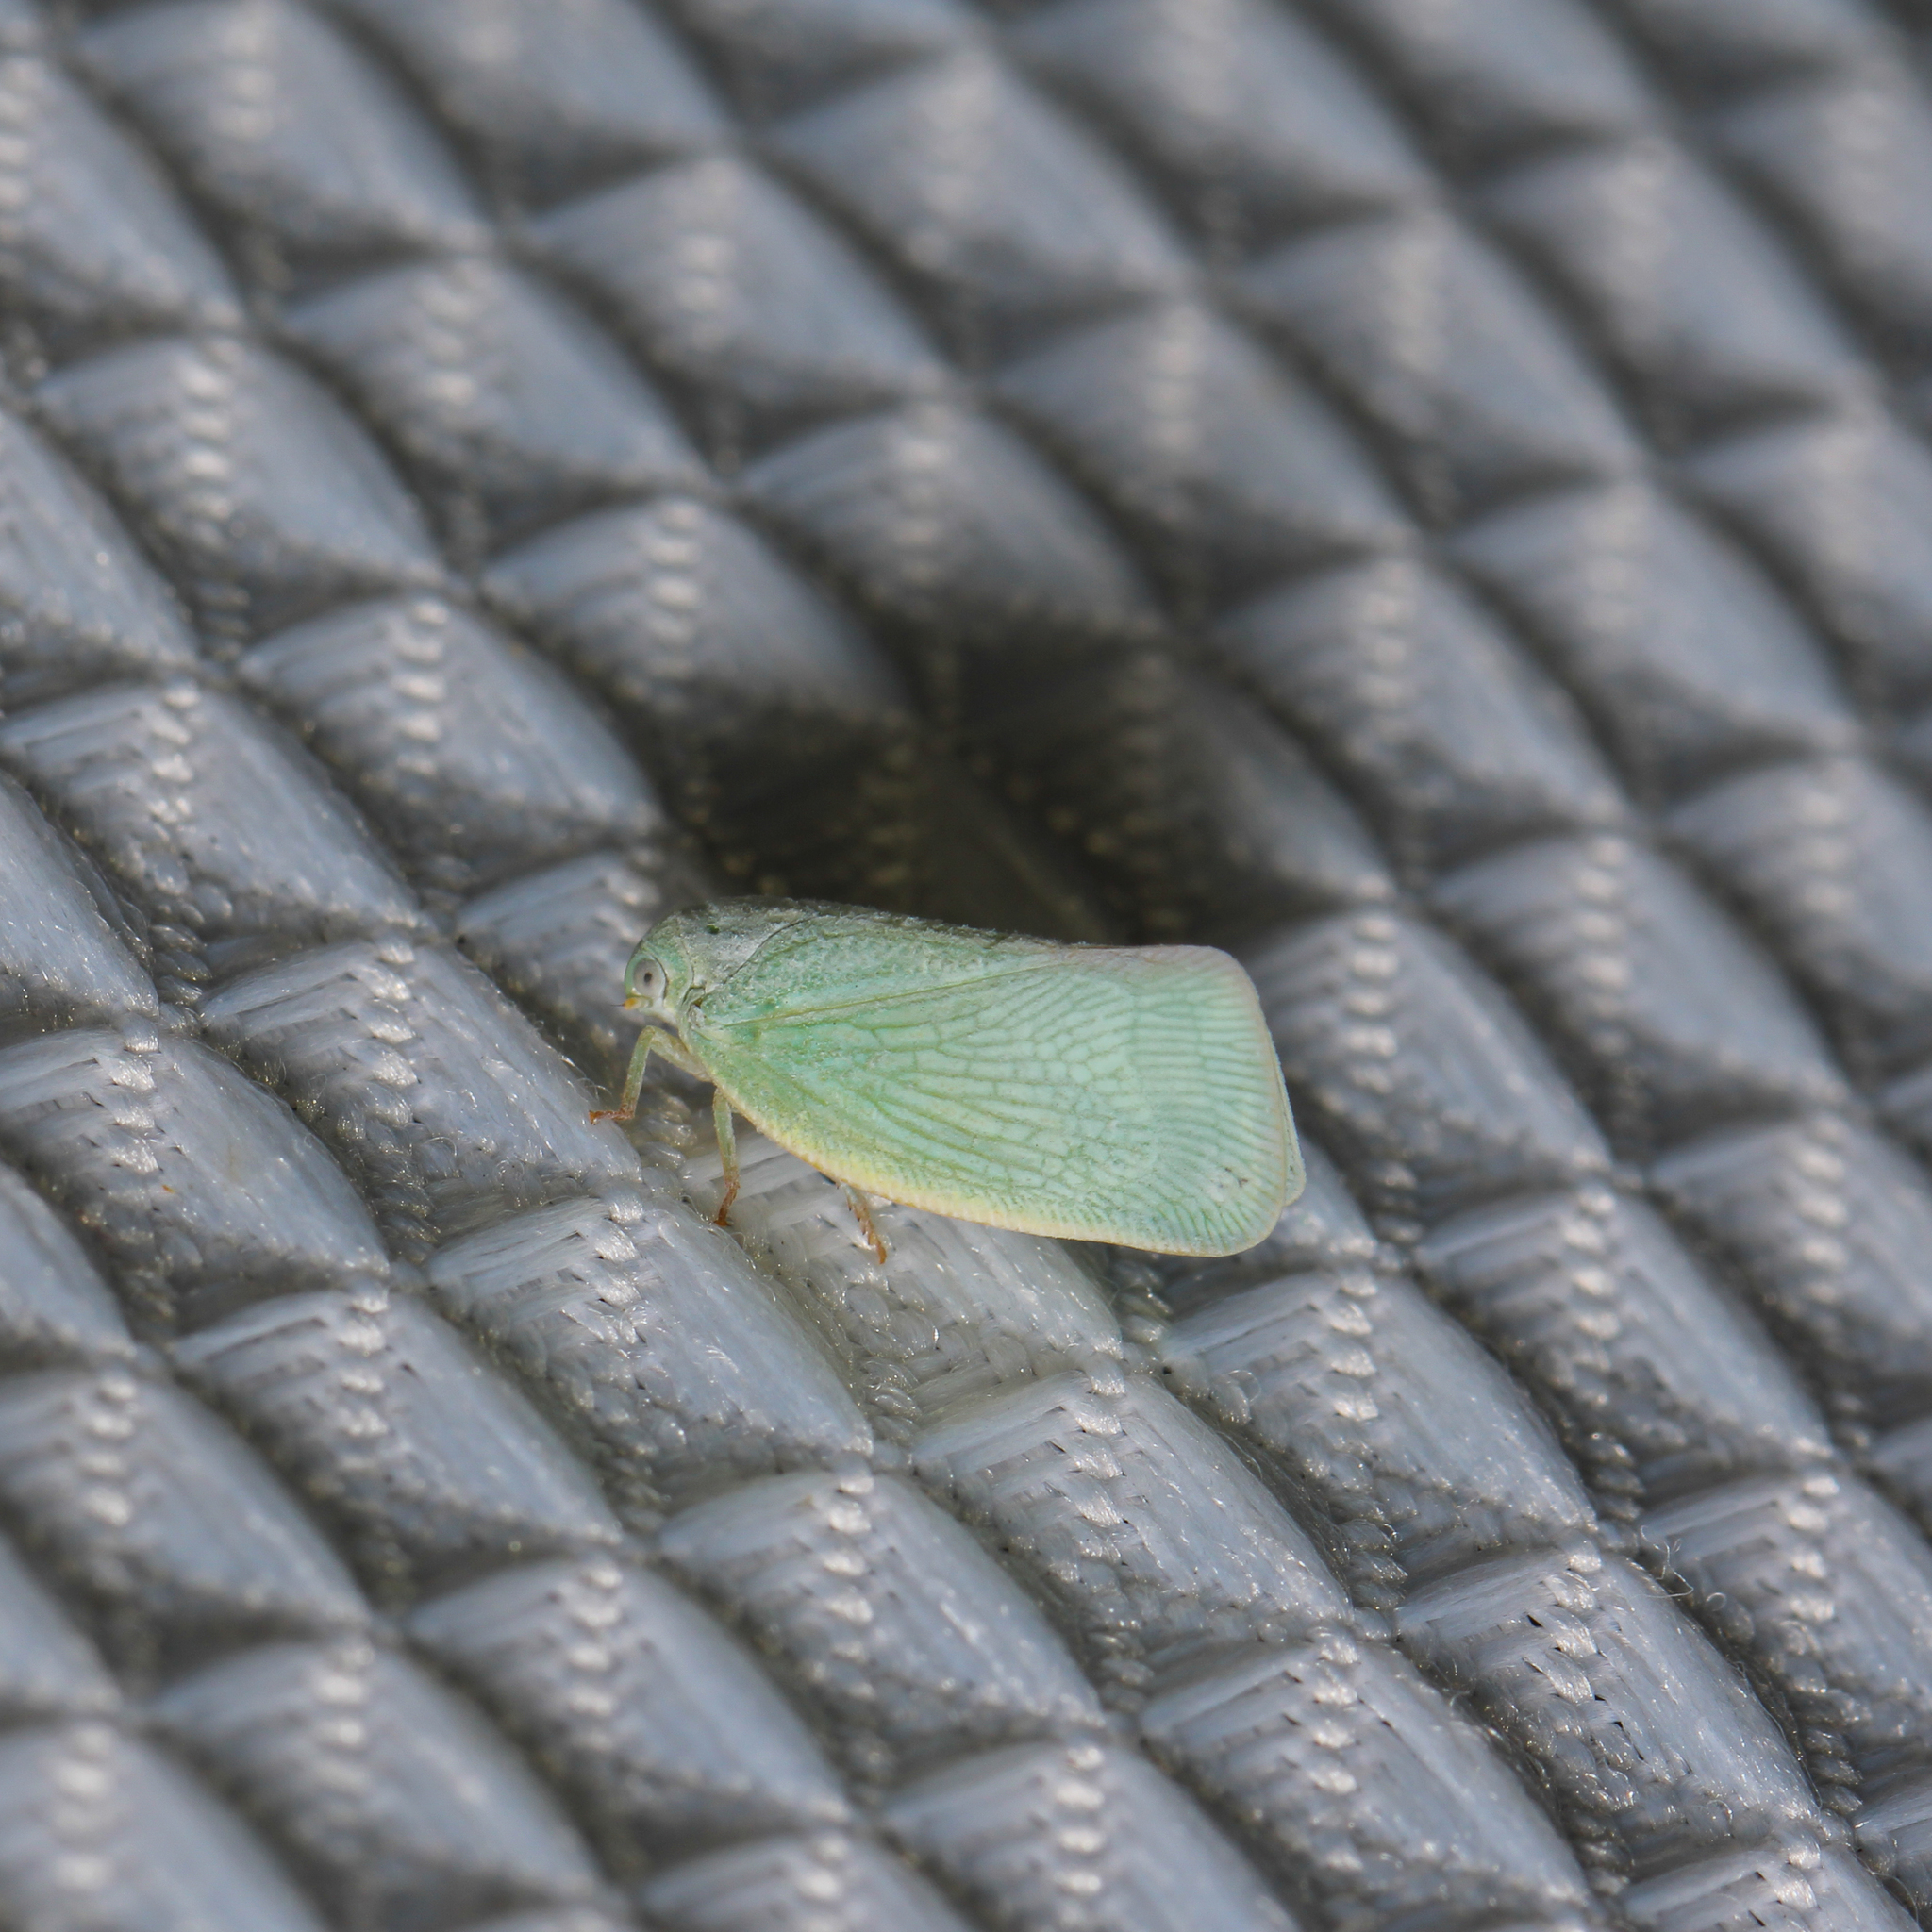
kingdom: Animalia
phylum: Arthropoda
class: Insecta
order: Hemiptera
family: Flatidae
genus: Flatormenis
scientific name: Flatormenis proxima
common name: Northern flatid planthopper
